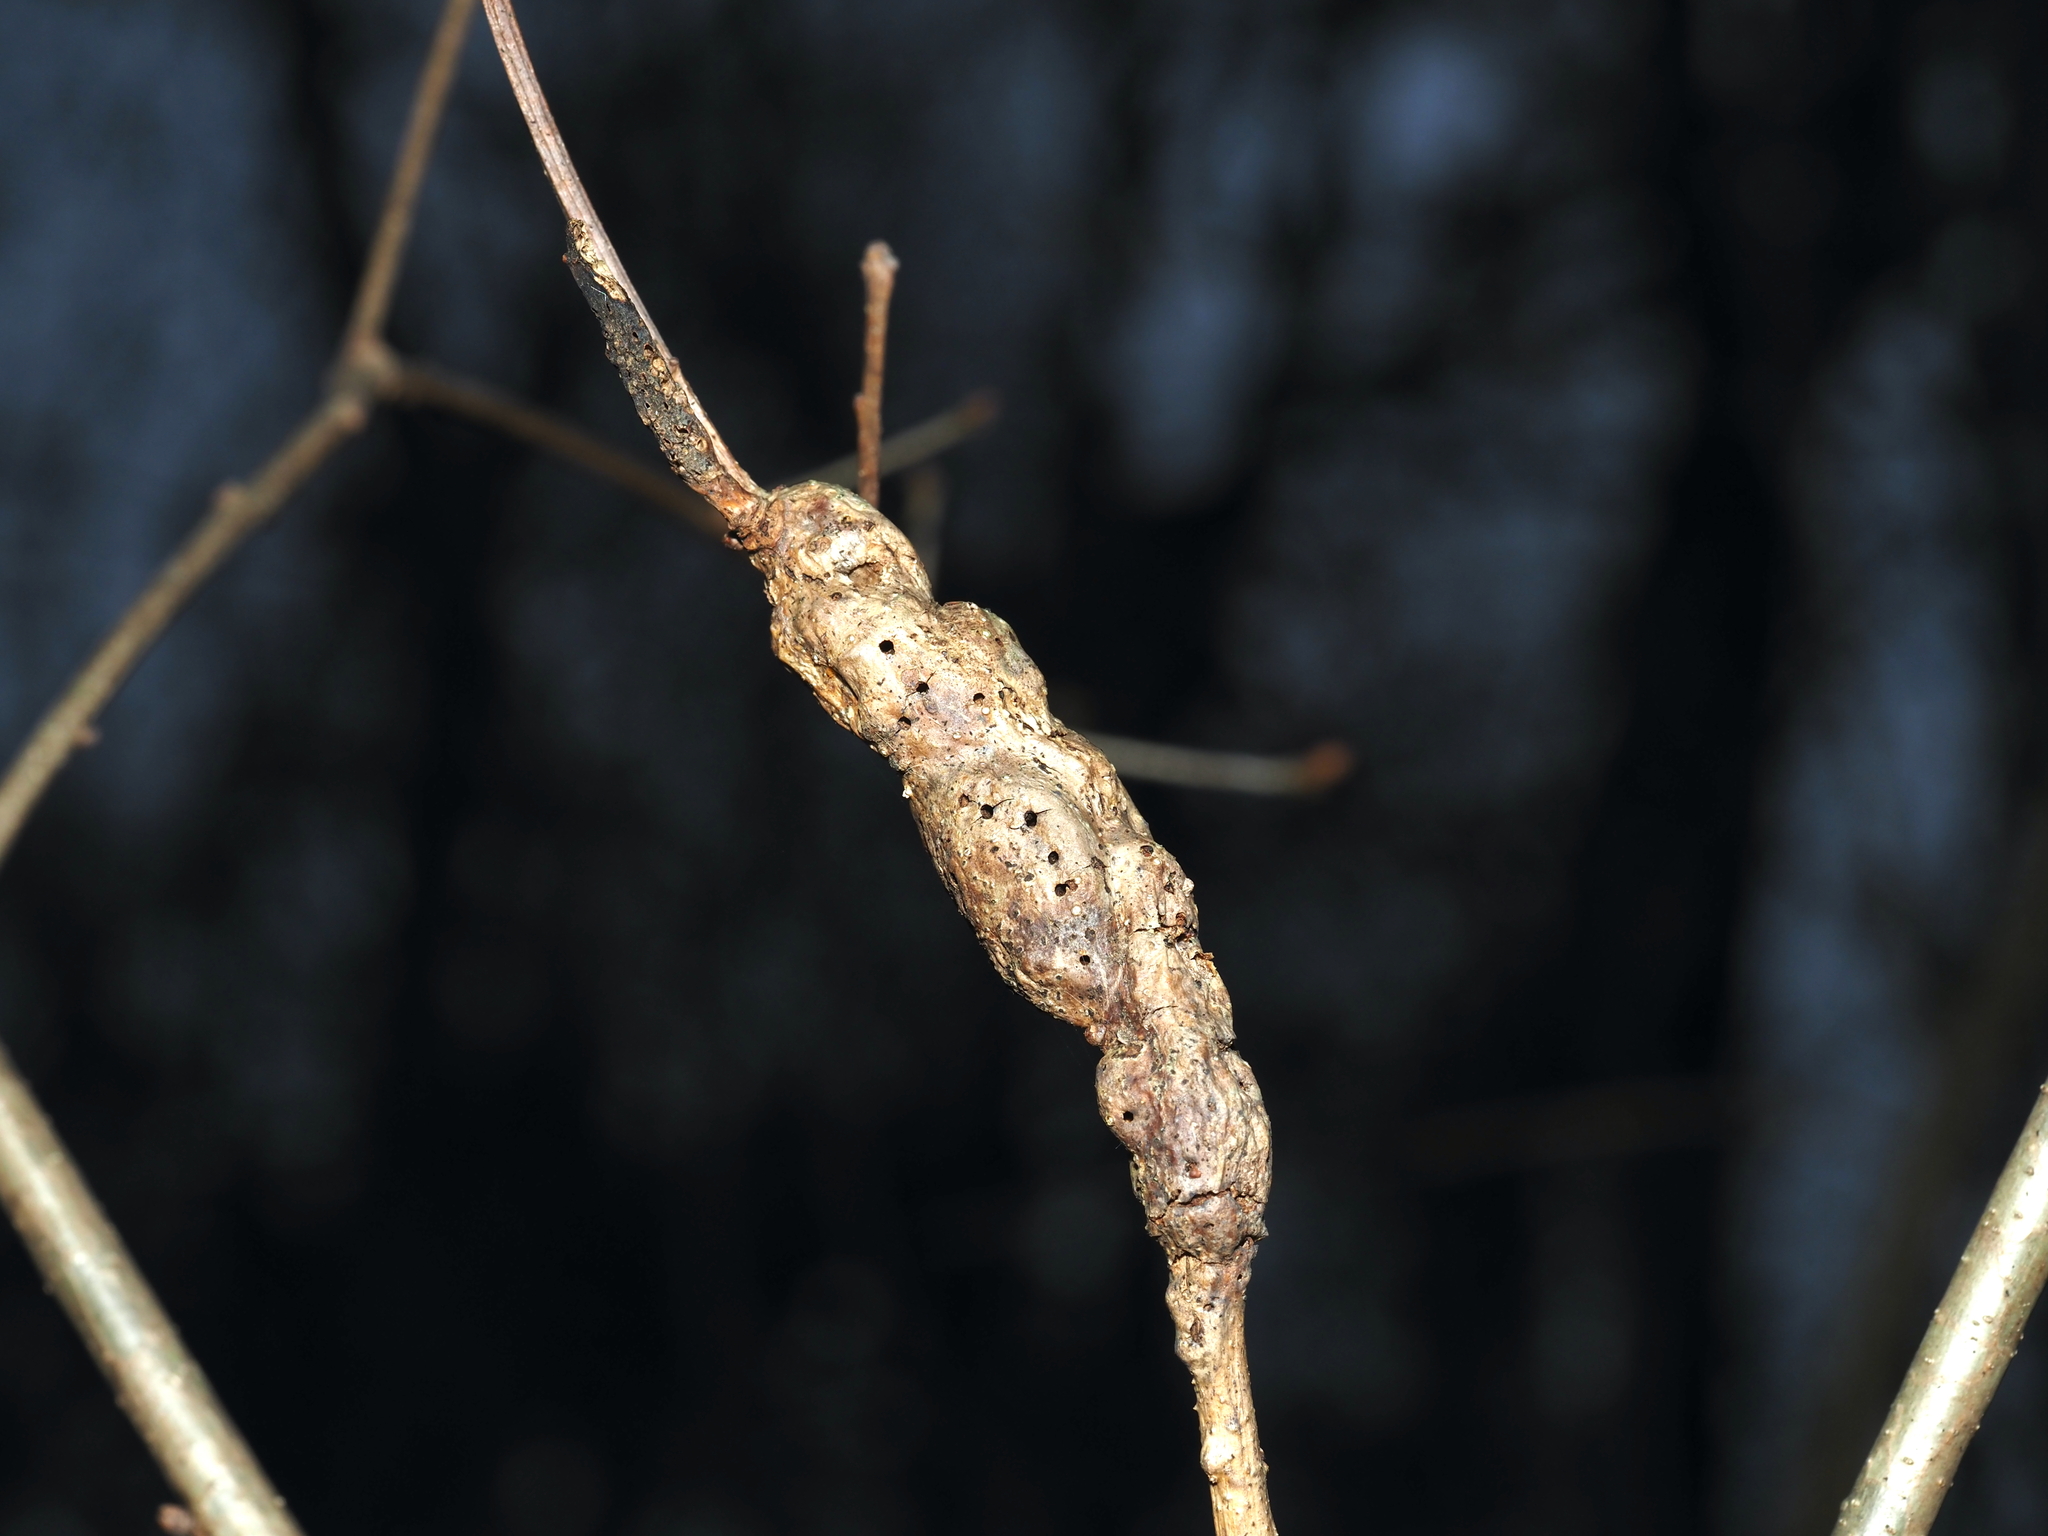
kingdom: Animalia
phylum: Arthropoda
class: Insecta
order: Hymenoptera
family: Cynipidae
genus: Neuroterus
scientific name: Neuroterus quercusbaccarum
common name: Common spangle gall
